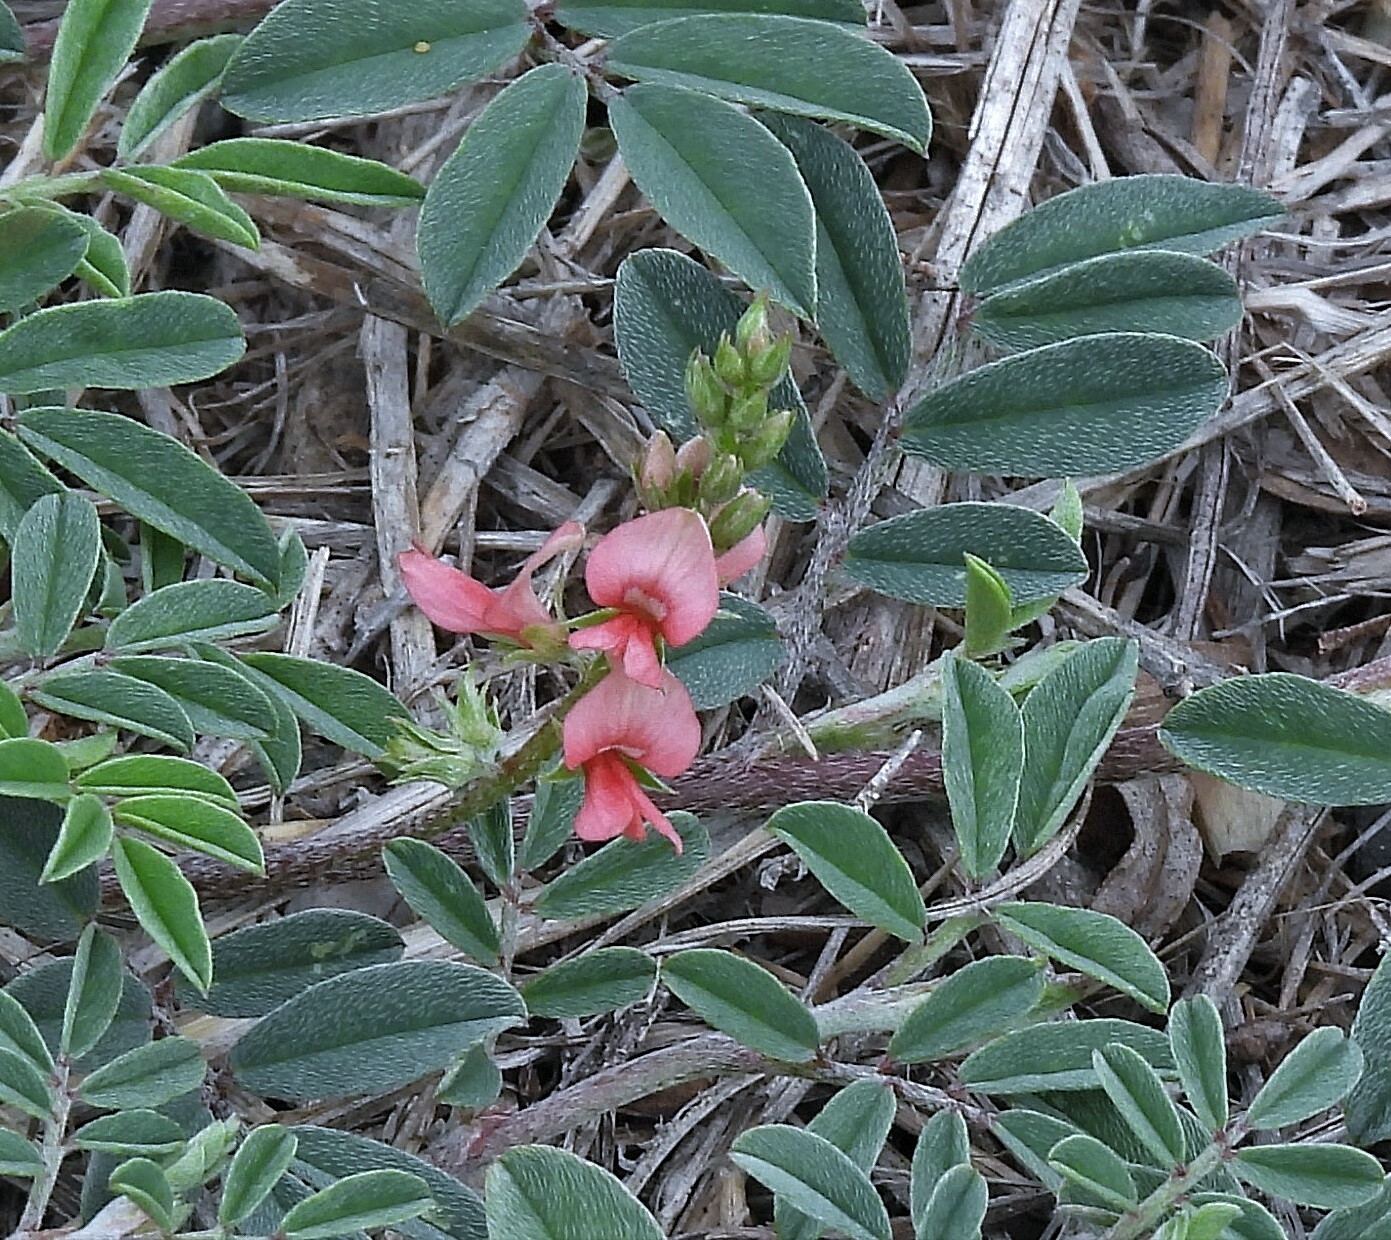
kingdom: Plantae
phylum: Tracheophyta
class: Magnoliopsida
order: Fabales
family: Fabaceae
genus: Indigofera
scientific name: Indigofera asperifolia
